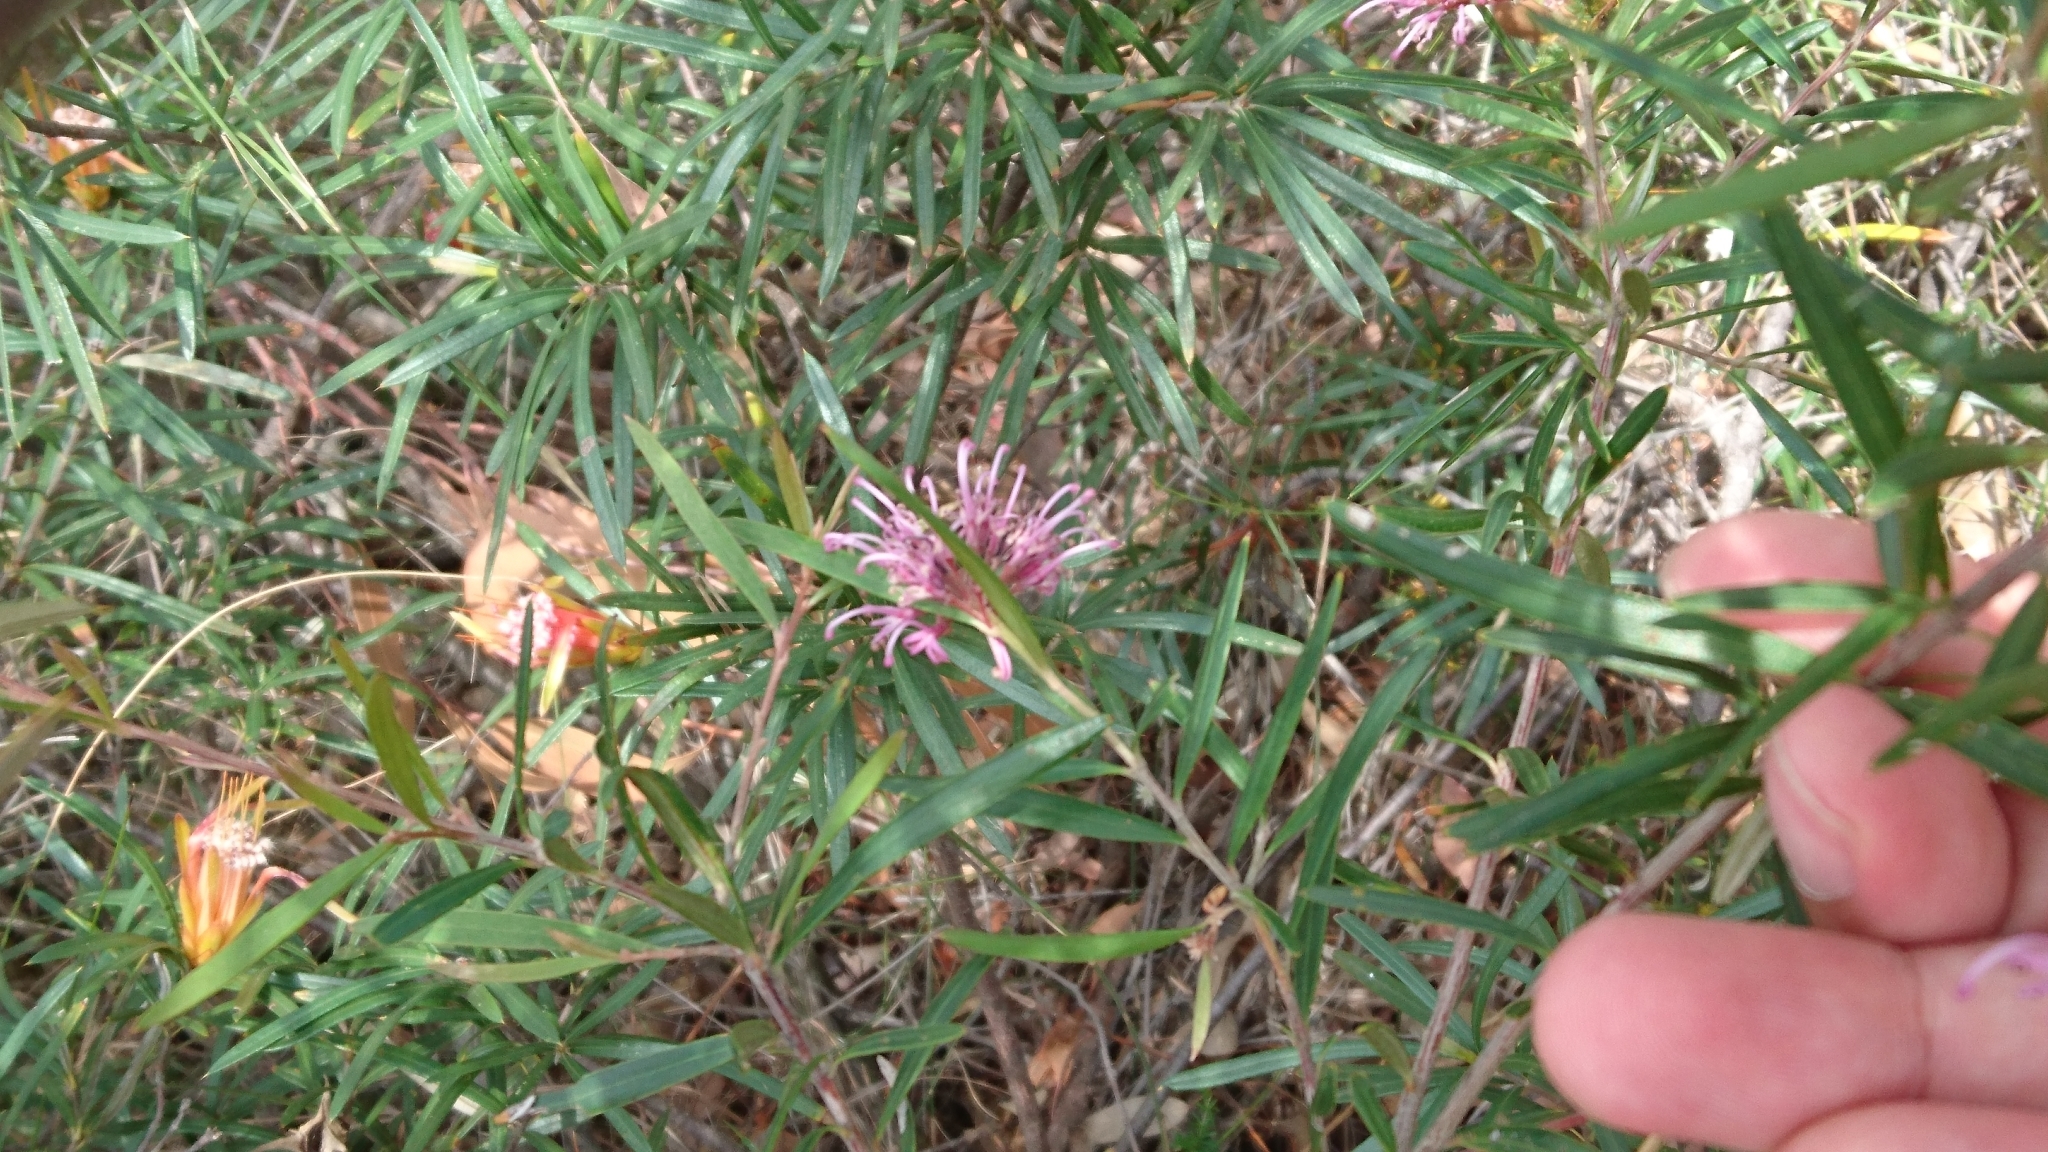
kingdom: Plantae
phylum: Tracheophyta
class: Magnoliopsida
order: Proteales
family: Proteaceae
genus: Grevillea
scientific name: Grevillea sericea
